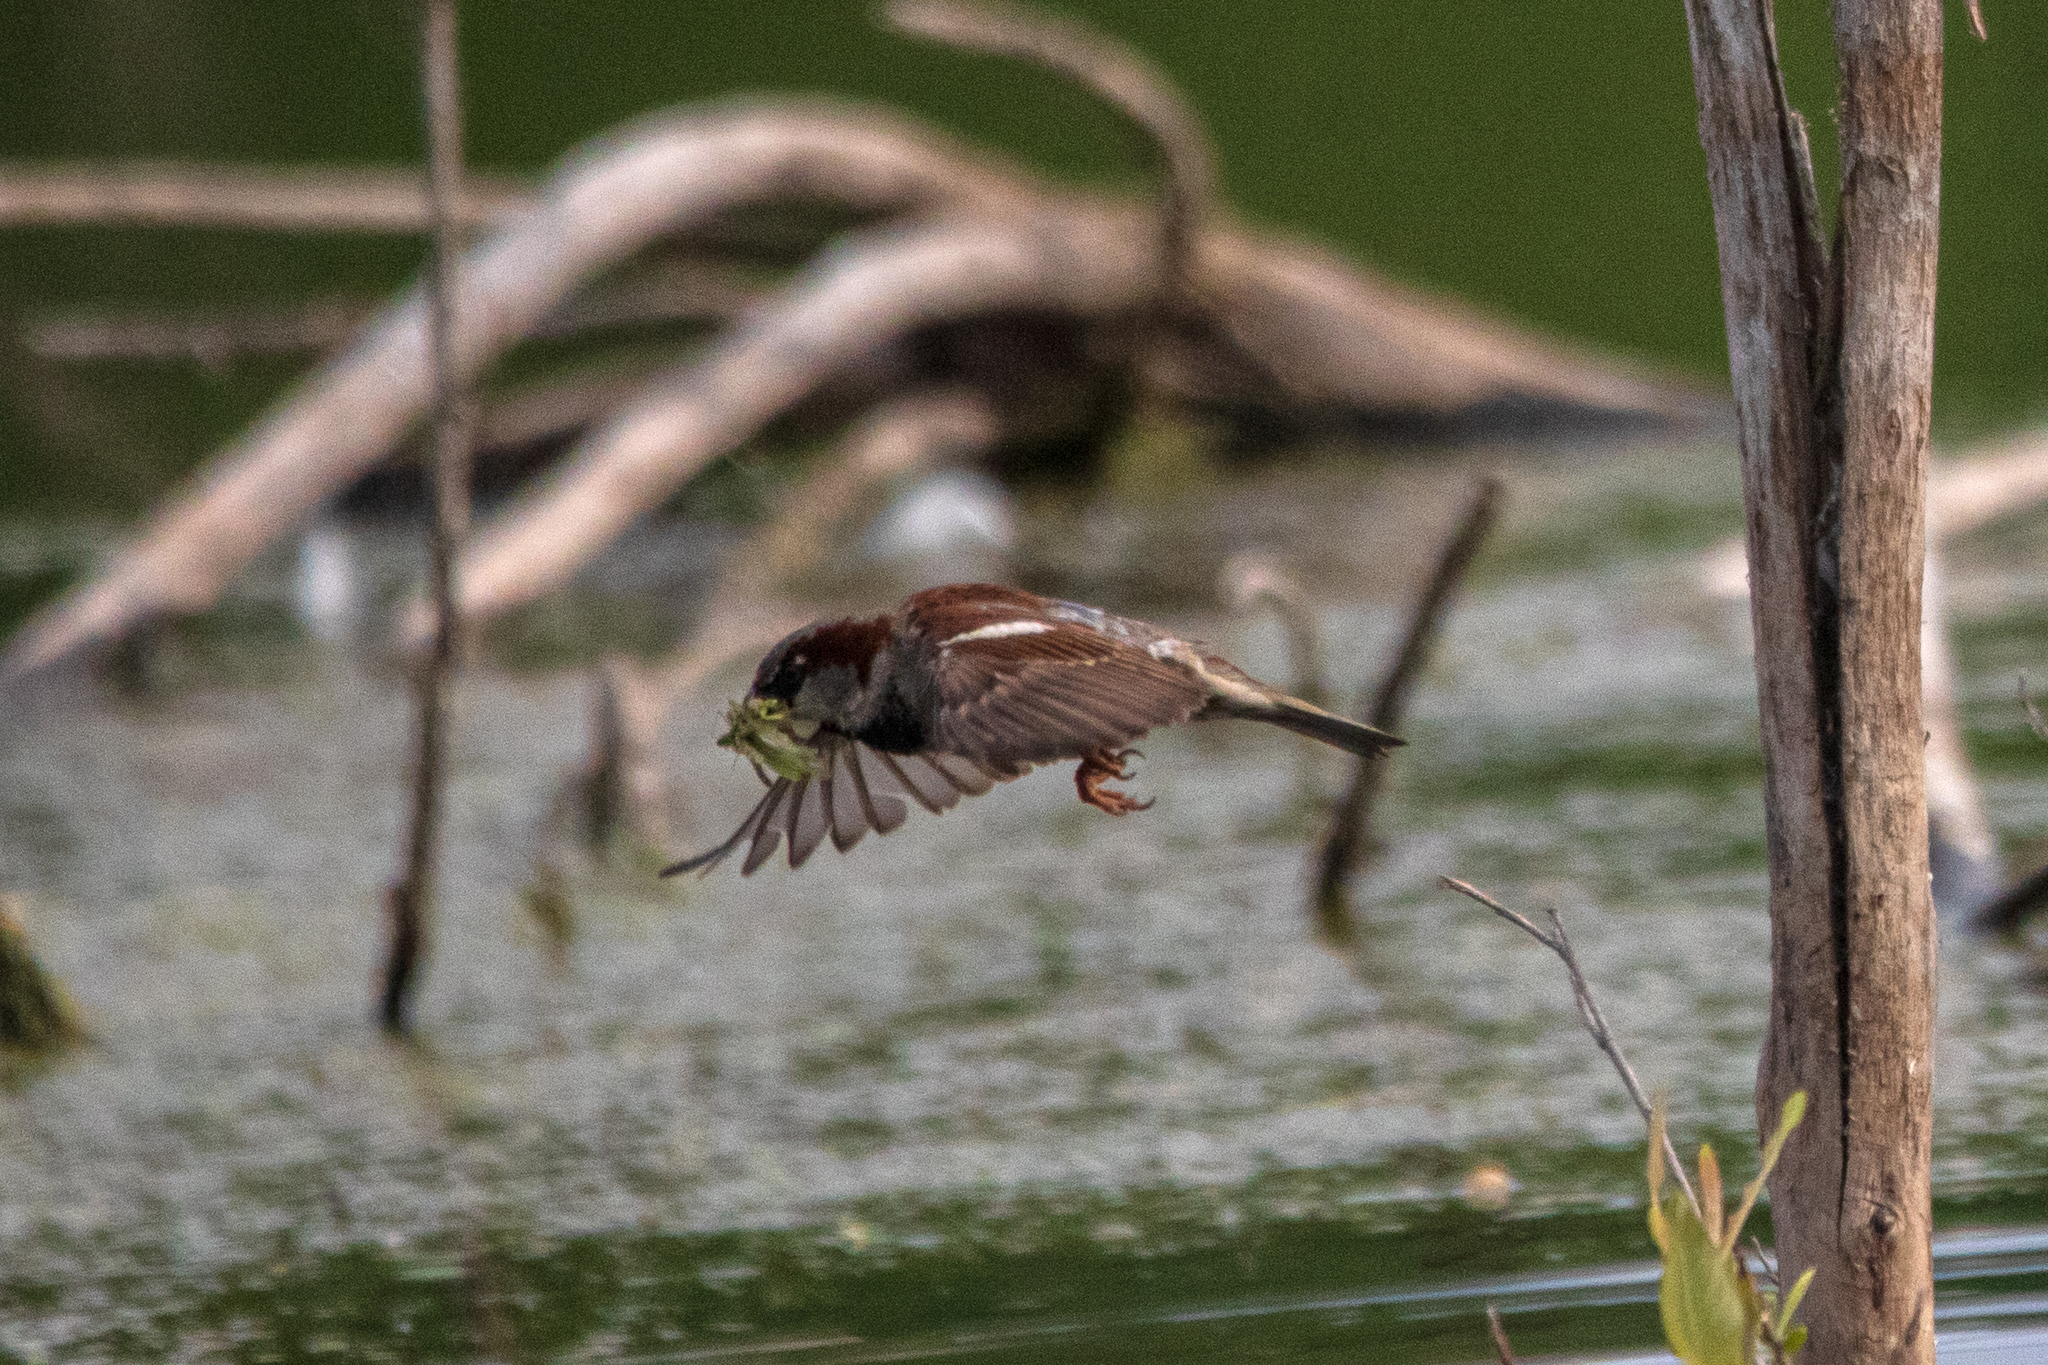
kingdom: Animalia
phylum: Chordata
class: Aves
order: Passeriformes
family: Passeridae
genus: Passer
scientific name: Passer domesticus
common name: House sparrow
